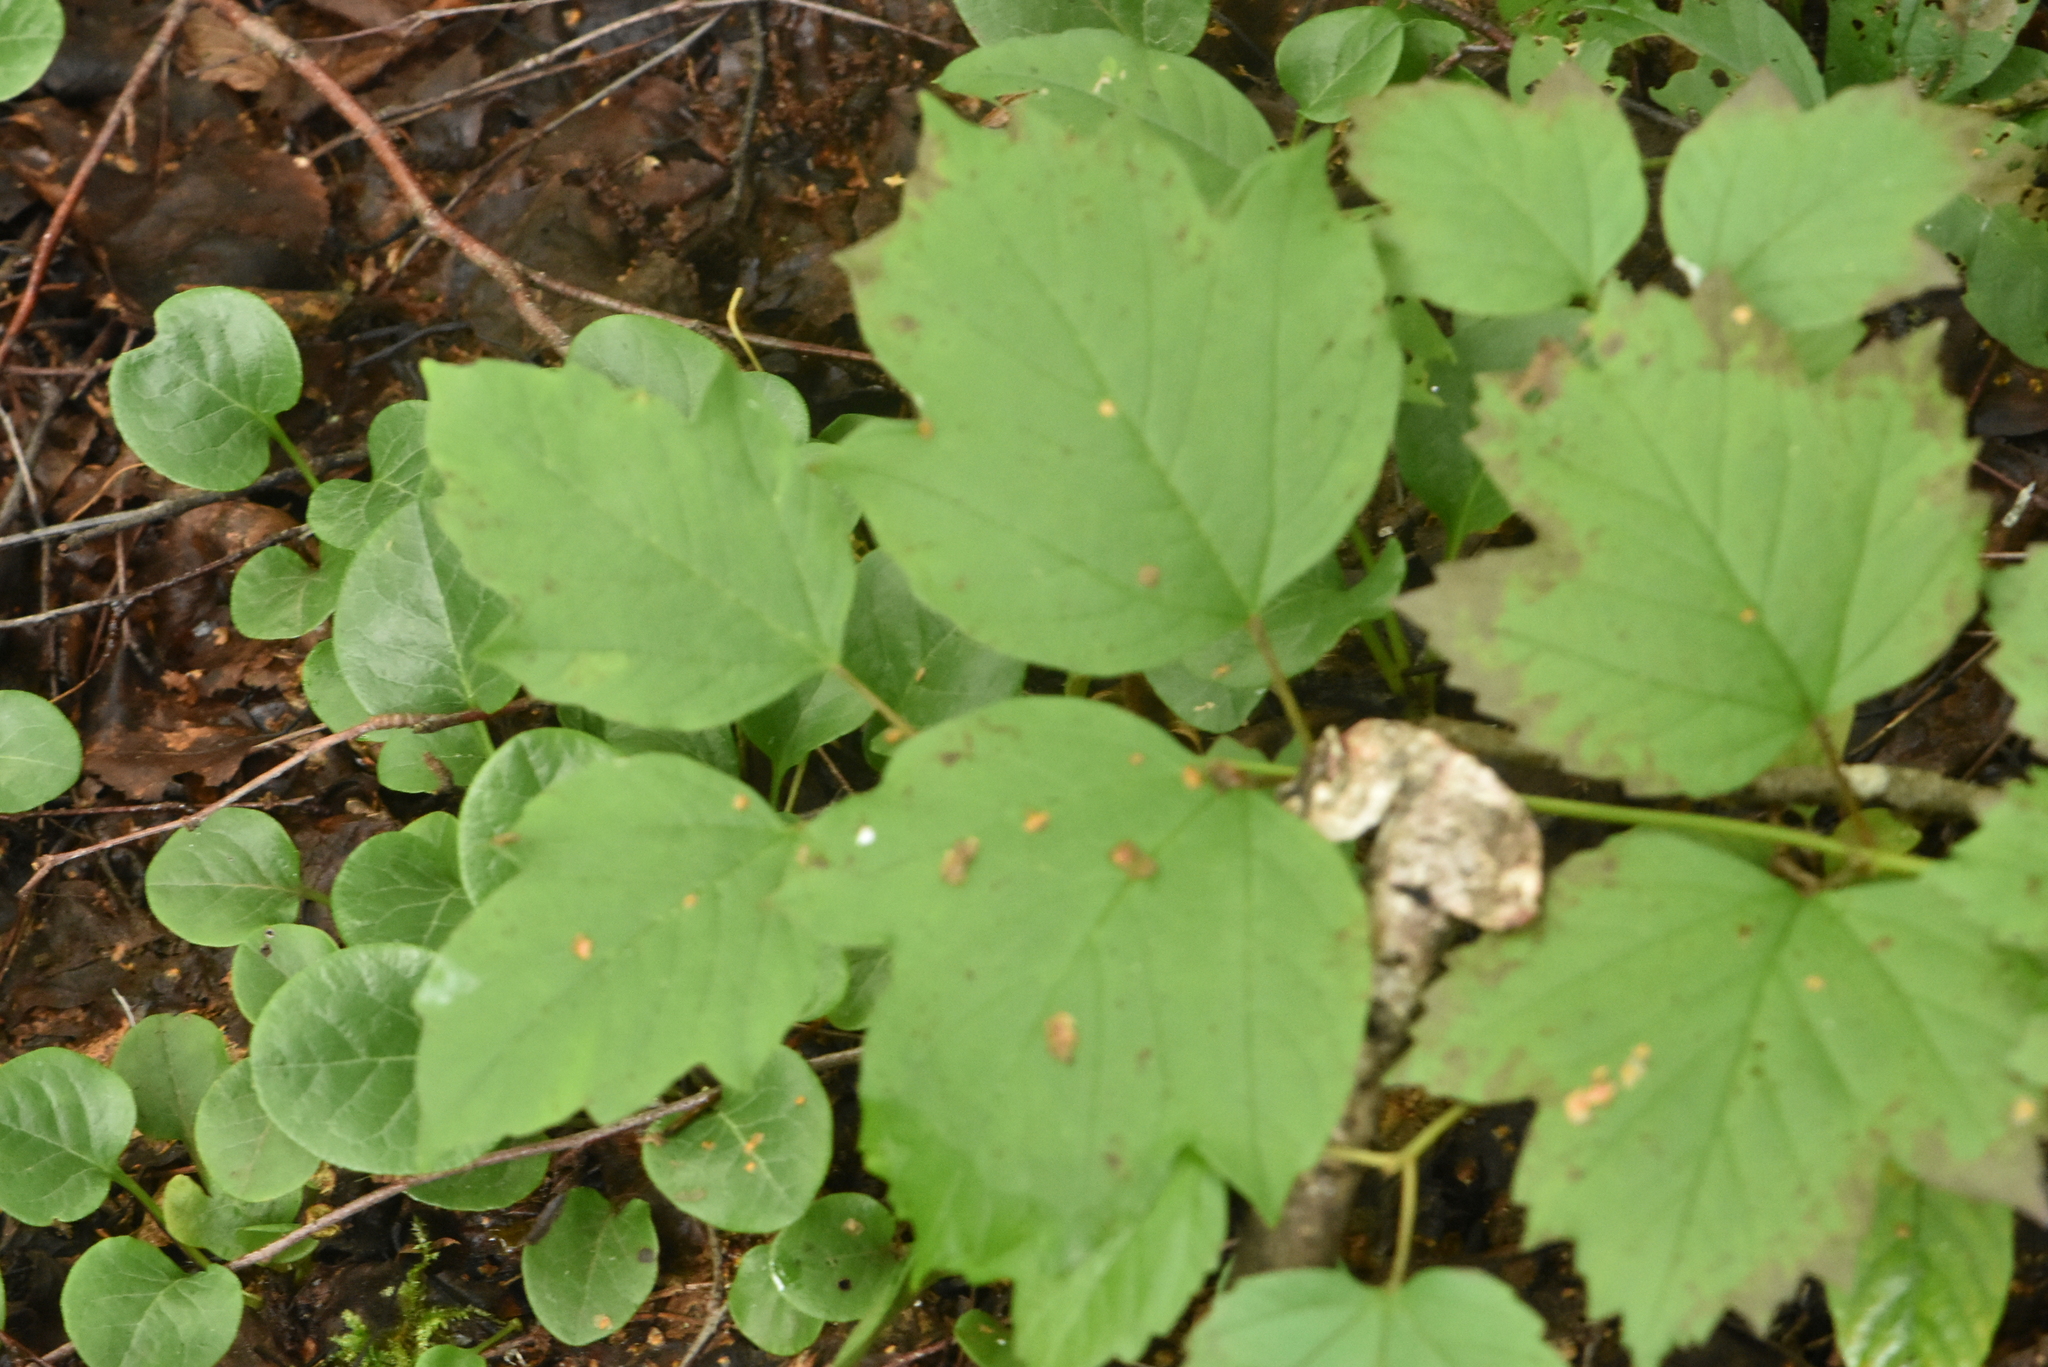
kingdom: Plantae
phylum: Tracheophyta
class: Magnoliopsida
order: Dipsacales
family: Viburnaceae
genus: Viburnum
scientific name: Viburnum opulus
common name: Guelder-rose
